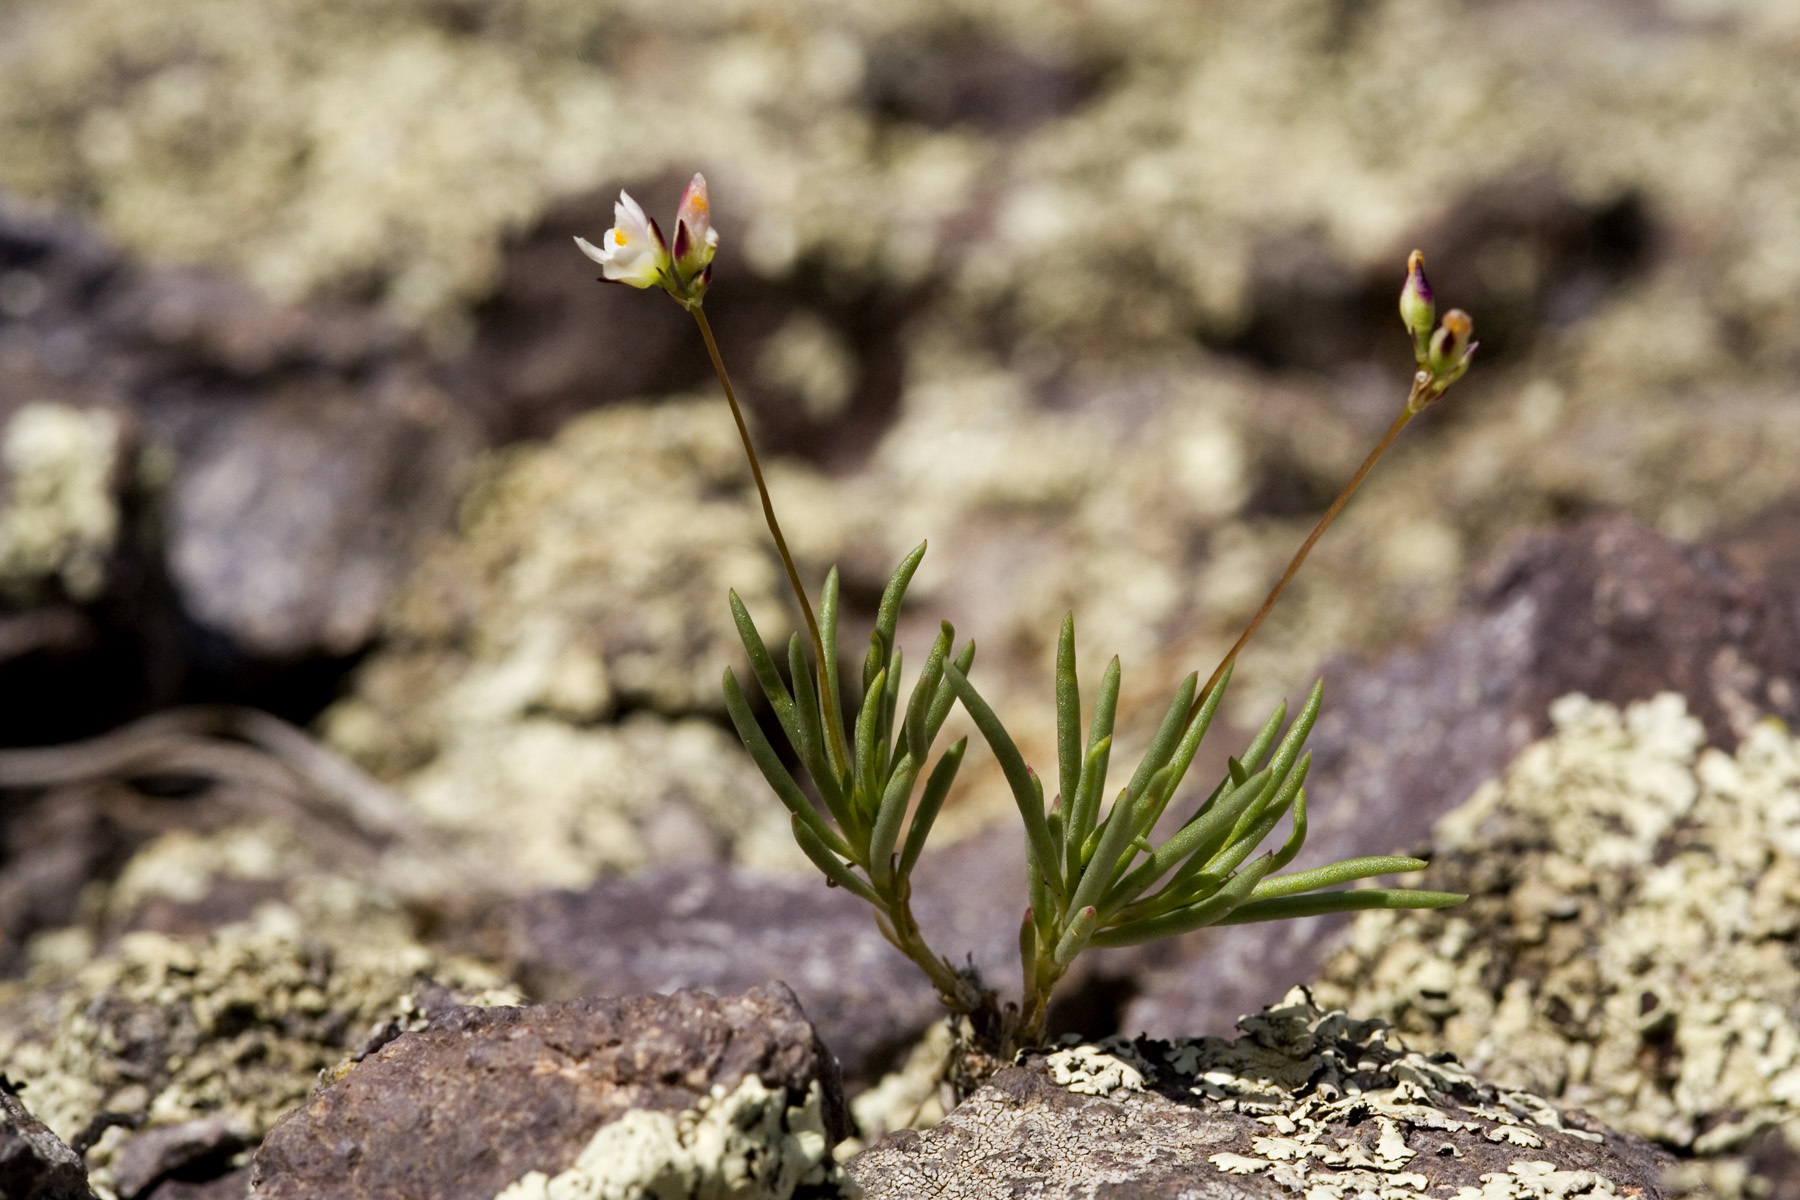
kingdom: Plantae
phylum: Tracheophyta
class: Magnoliopsida
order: Caryophyllales
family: Montiaceae
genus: Phemeranthus
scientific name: Phemeranthus confertiflorus
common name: New mexico fameflower
